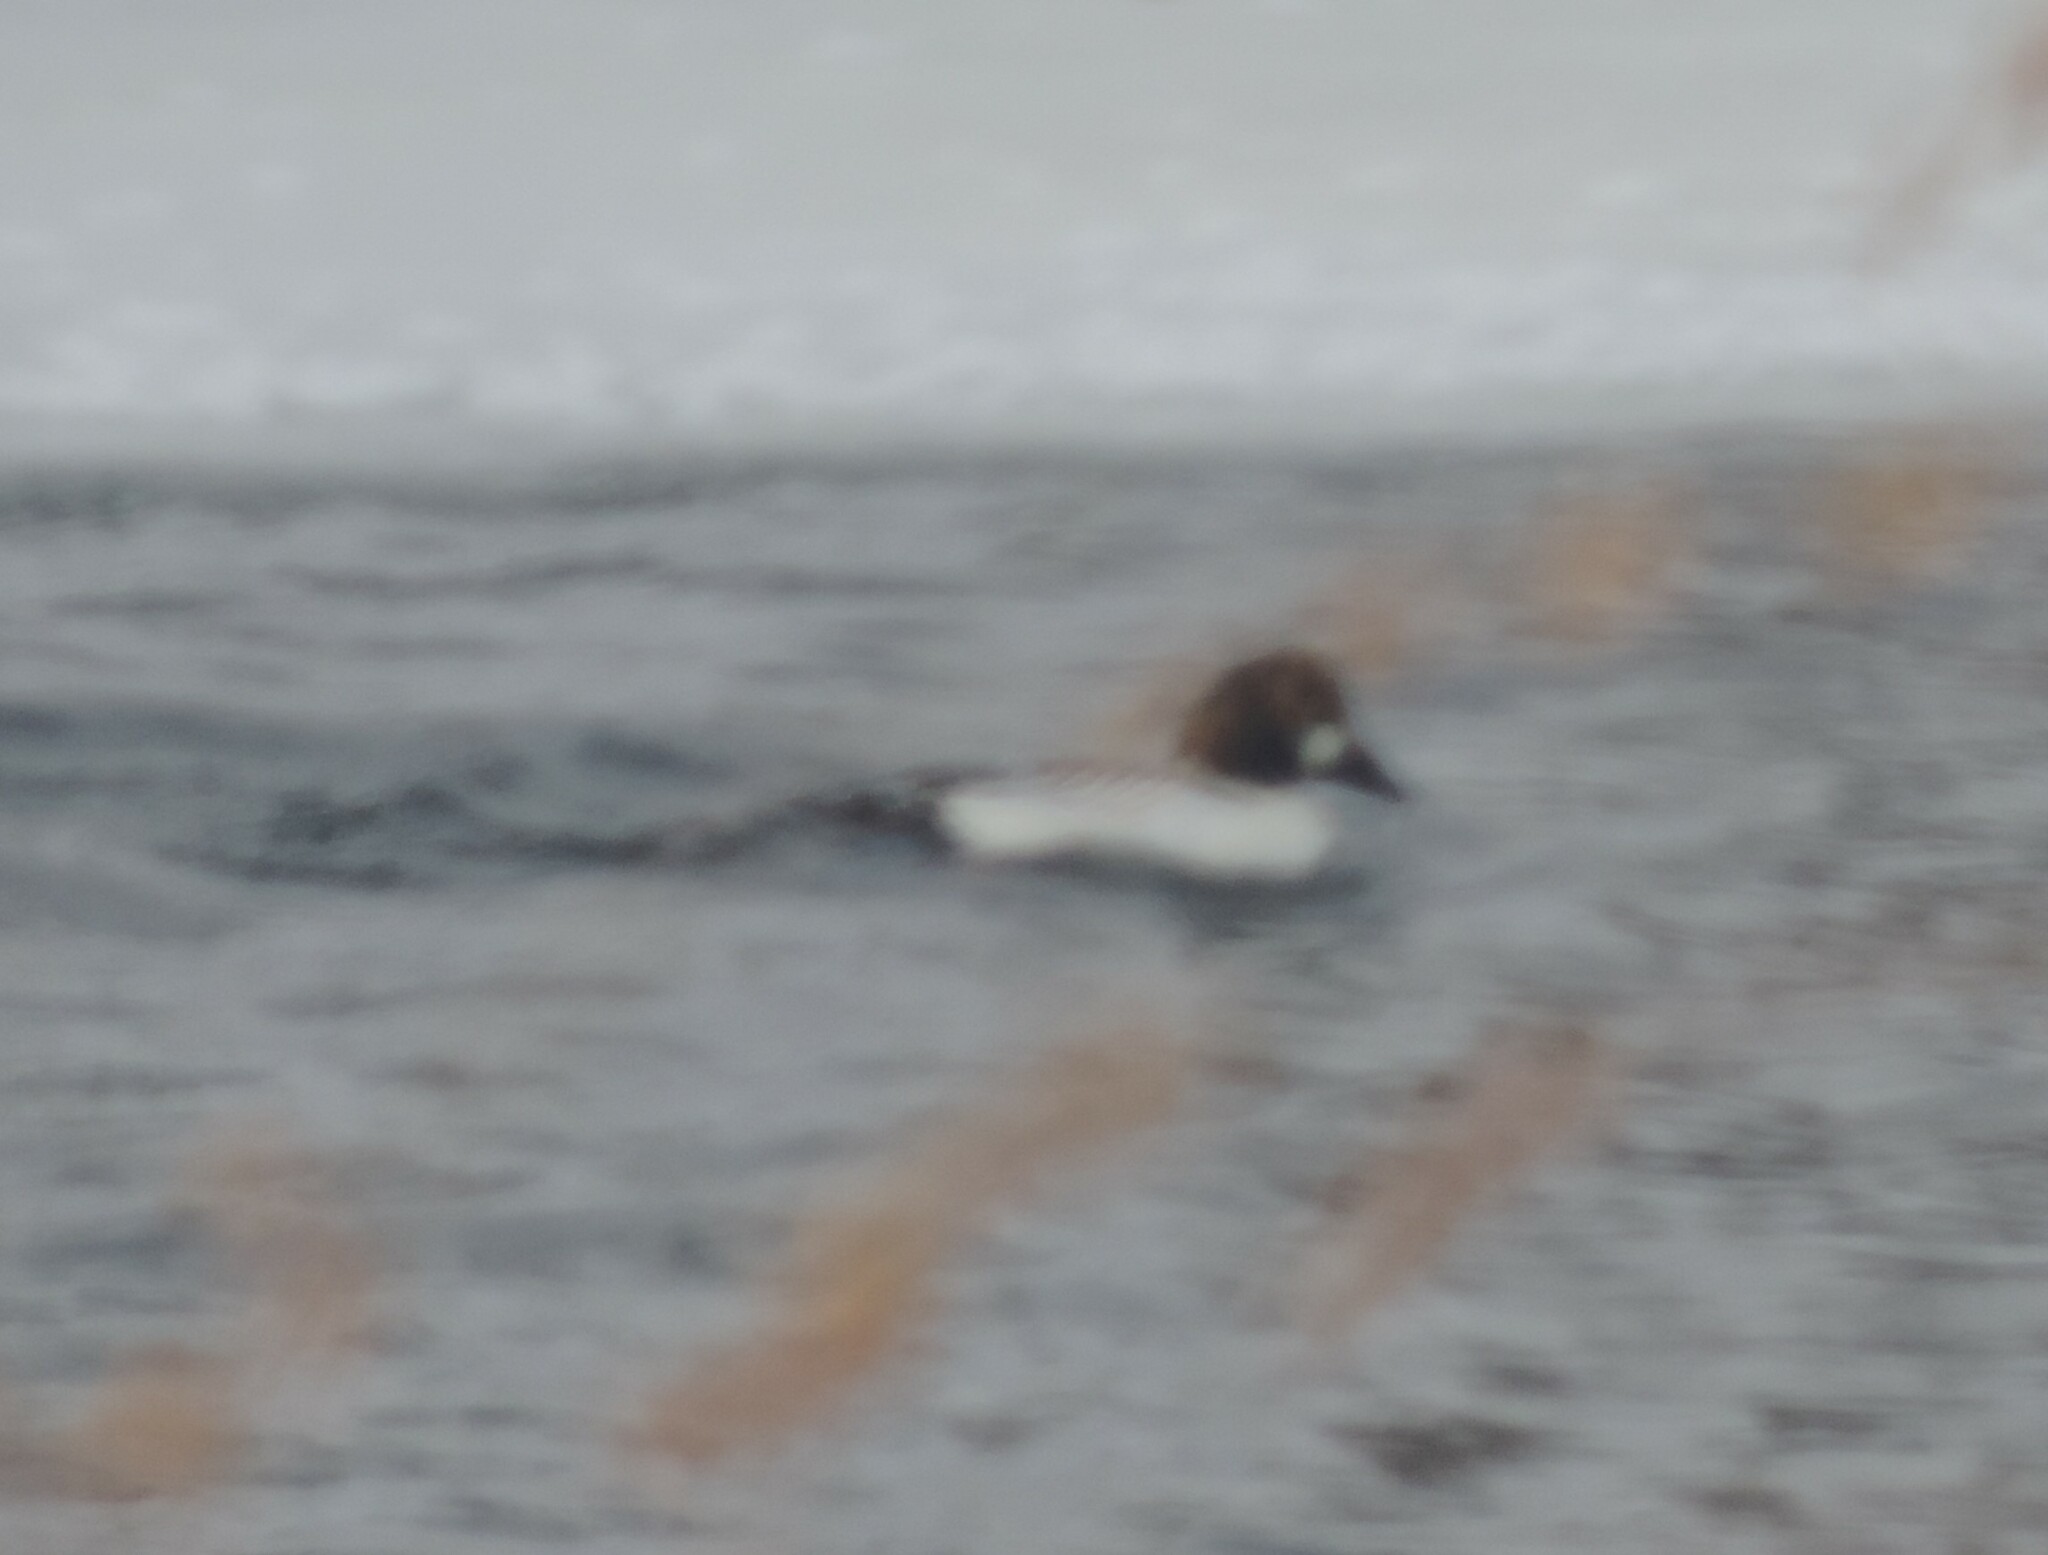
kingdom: Animalia
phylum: Chordata
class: Aves
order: Anseriformes
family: Anatidae
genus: Bucephala
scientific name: Bucephala clangula
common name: Common goldeneye
